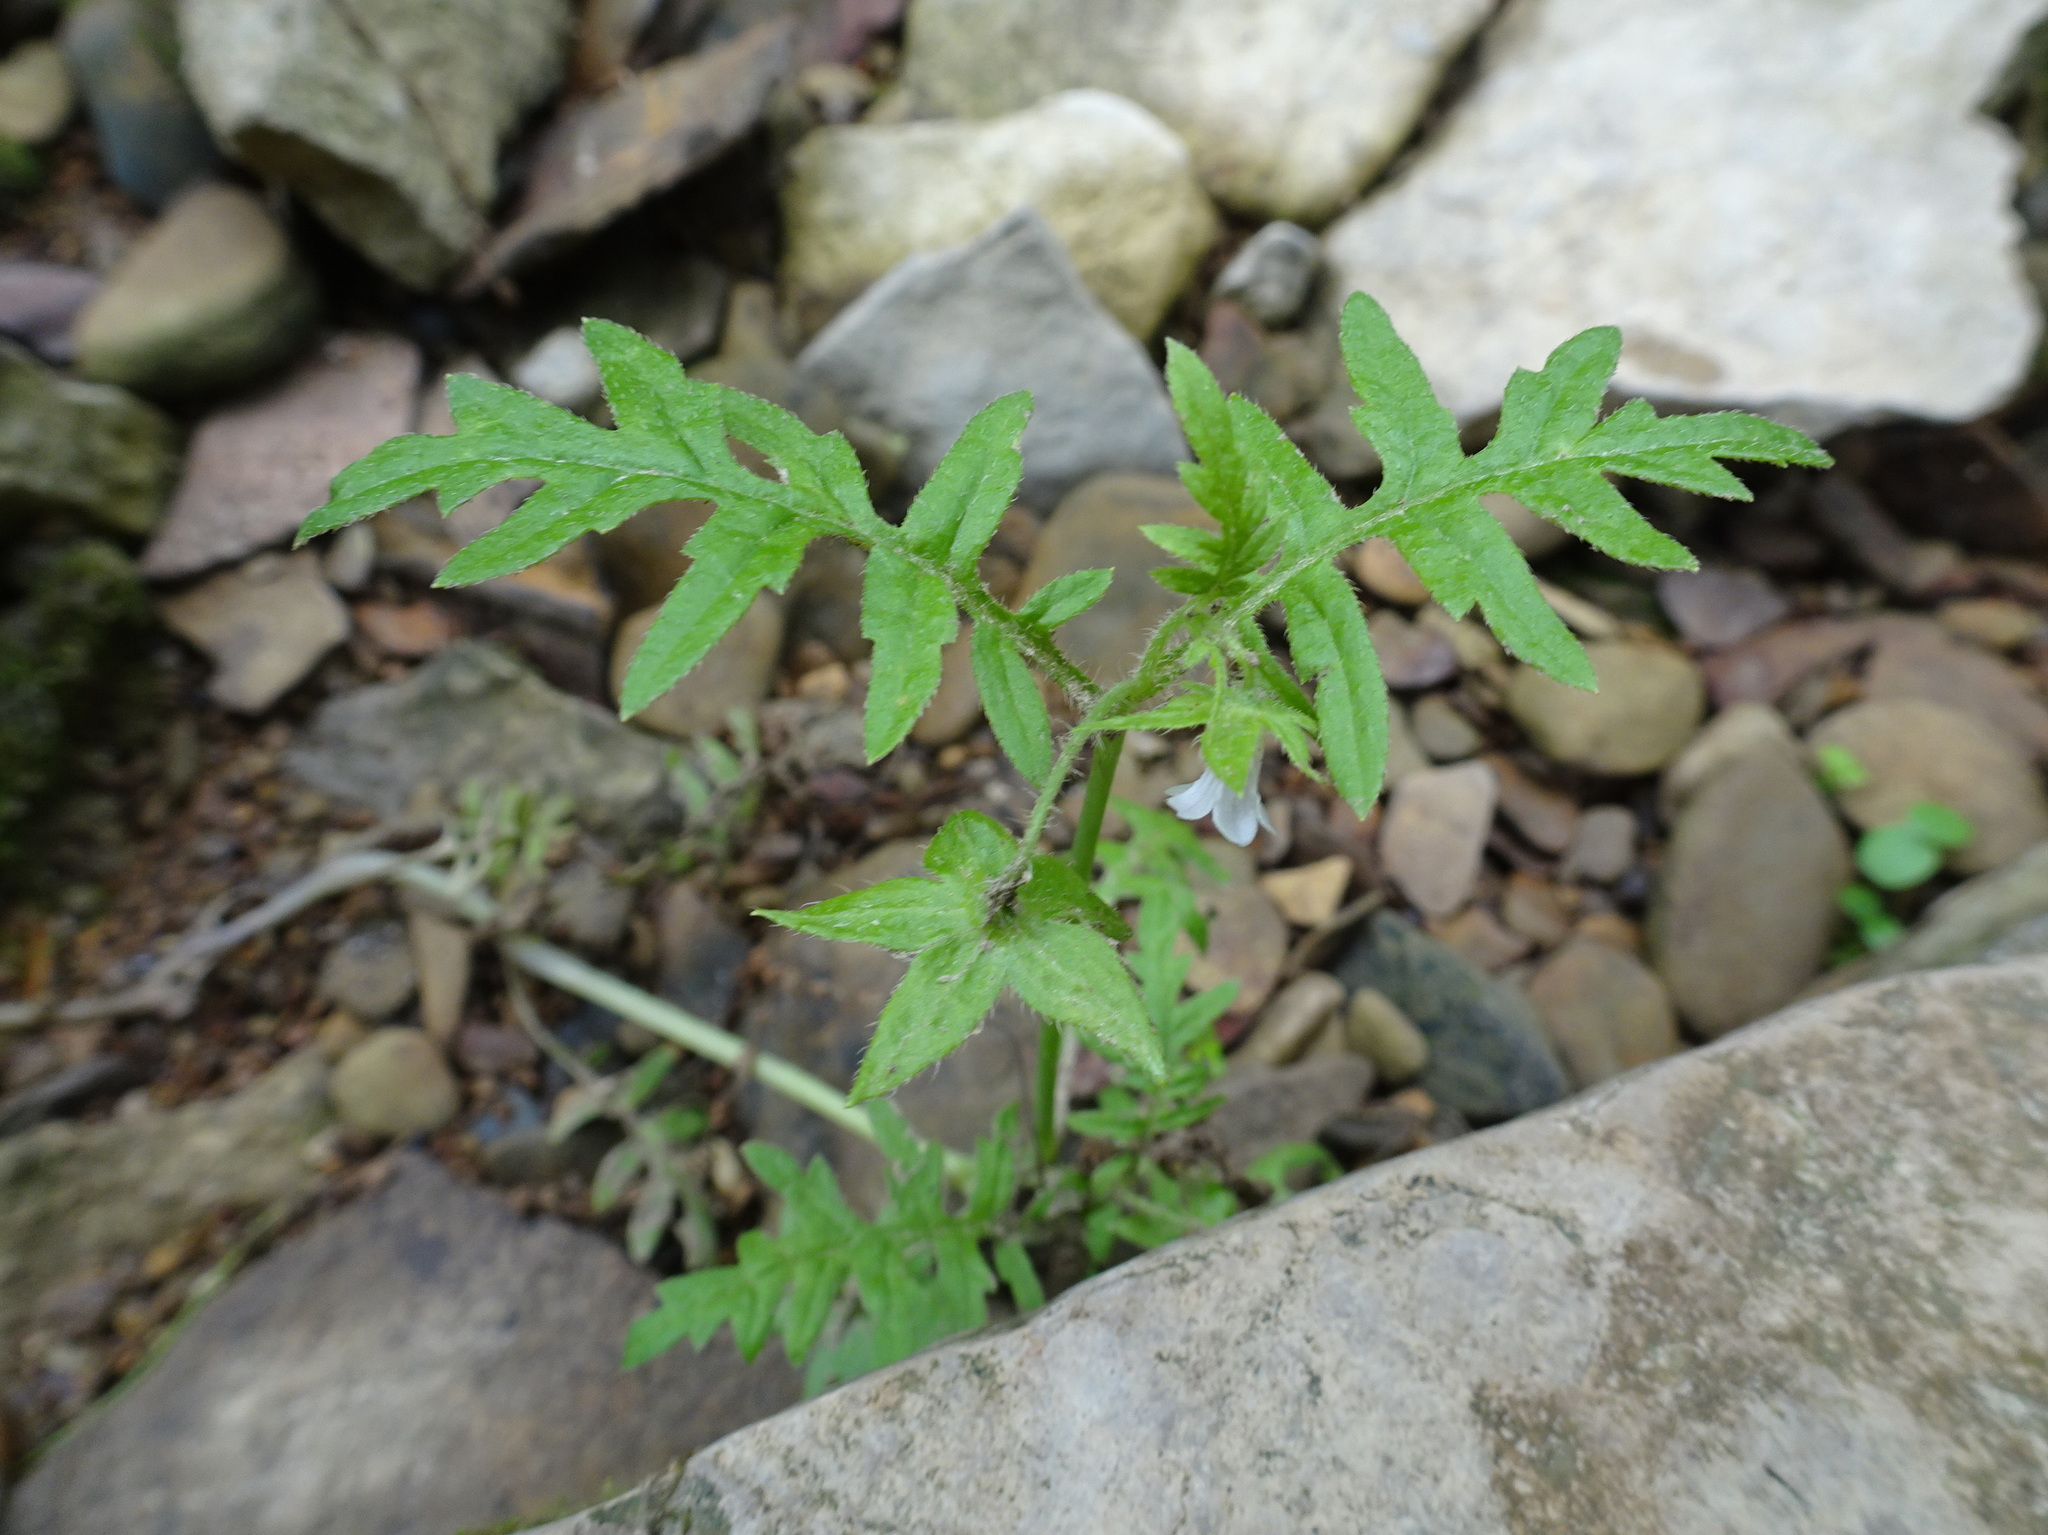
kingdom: Plantae
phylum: Tracheophyta
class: Magnoliopsida
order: Boraginales
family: Hydrophyllaceae
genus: Ellisia
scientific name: Ellisia nyctelea
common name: Aunt lucy
